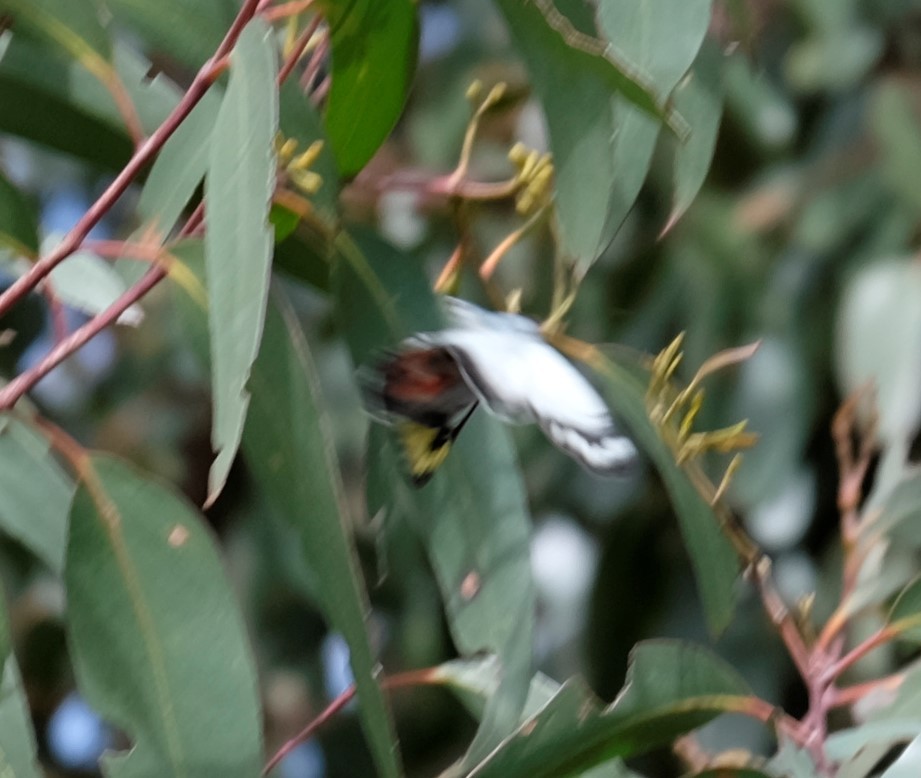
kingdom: Animalia
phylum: Arthropoda
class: Insecta
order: Lepidoptera
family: Pieridae
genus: Delias
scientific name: Delias harpalyce
